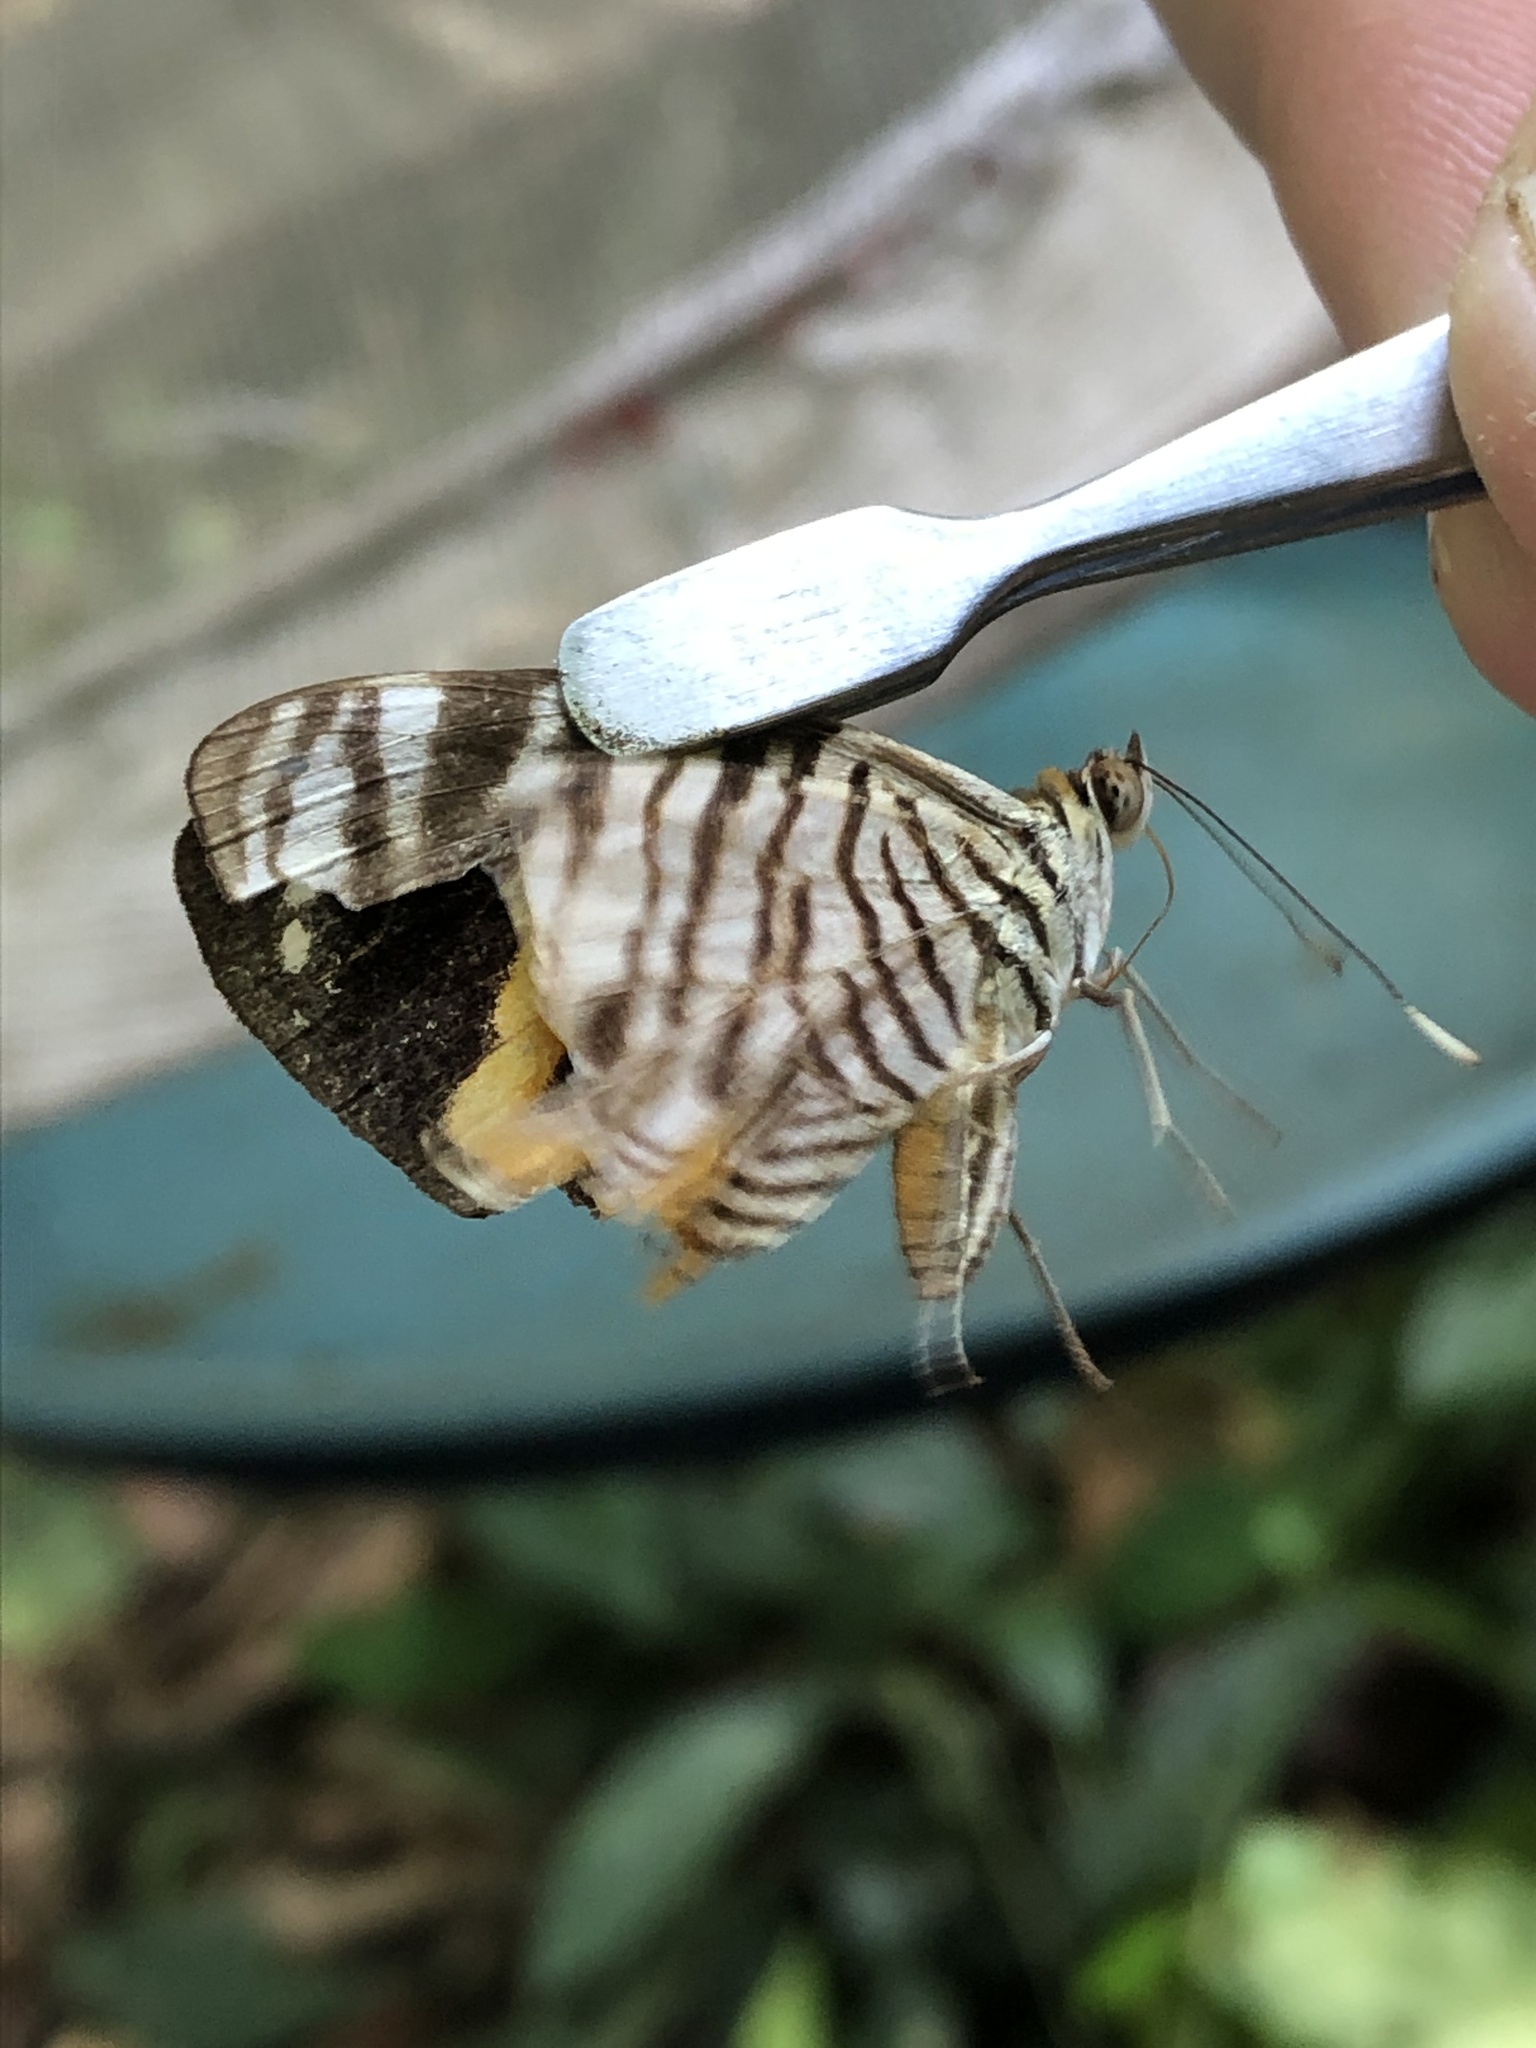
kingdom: Animalia
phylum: Arthropoda
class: Insecta
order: Lepidoptera
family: Nymphalidae
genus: Callizona
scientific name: Callizona acesta
